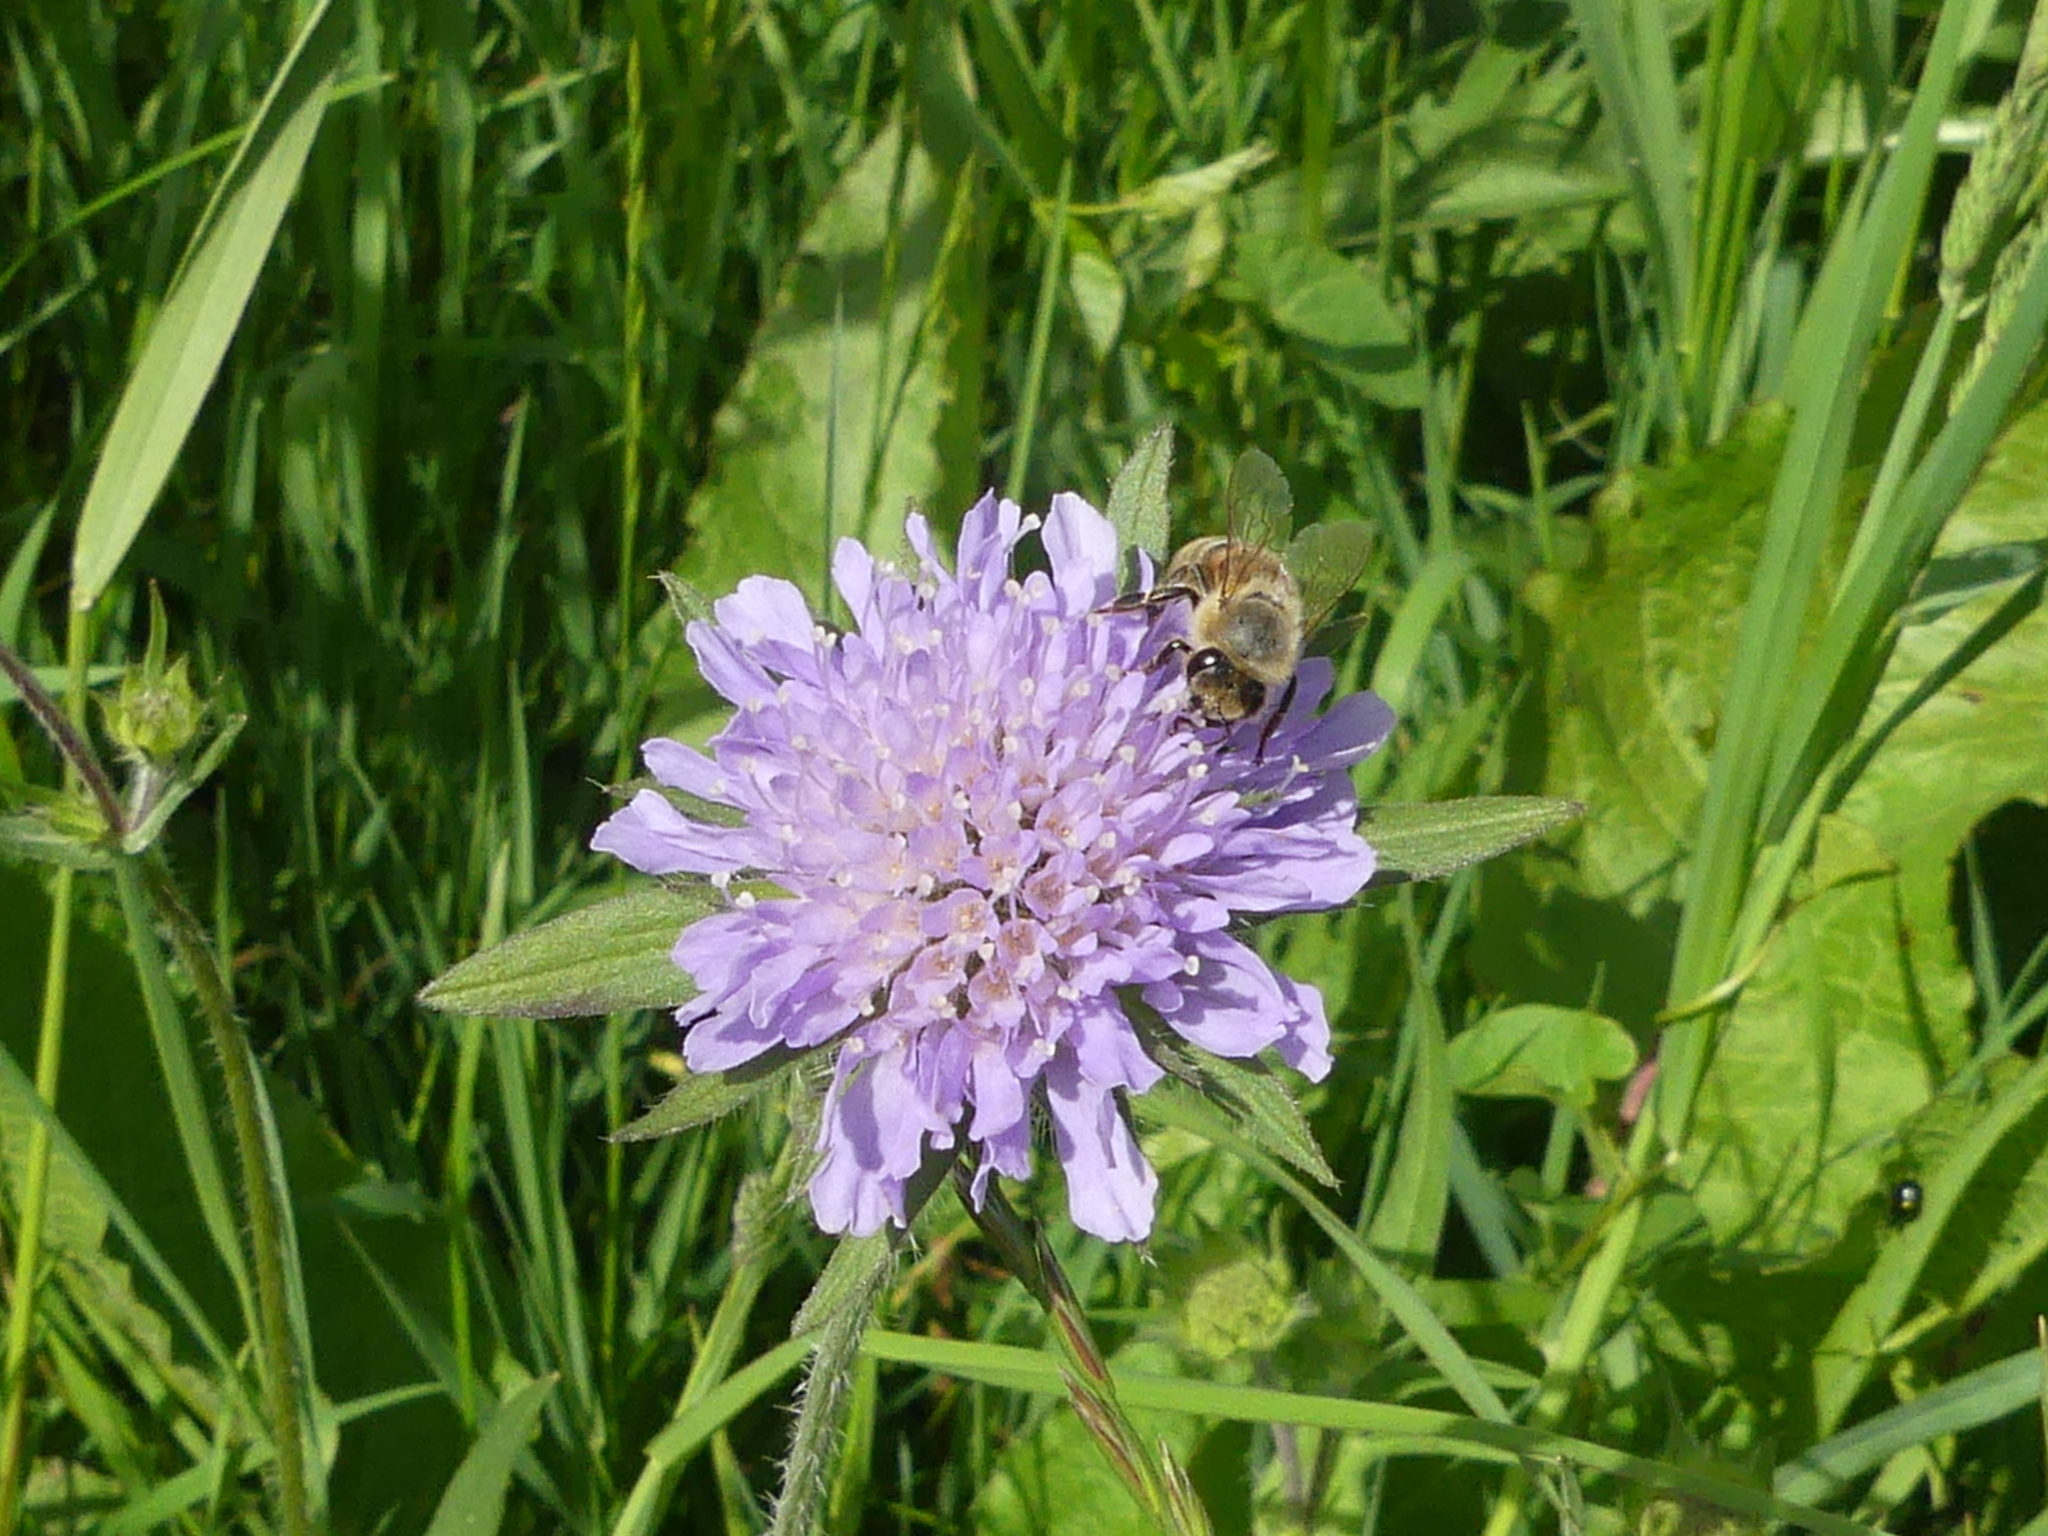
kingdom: Animalia
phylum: Arthropoda
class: Insecta
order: Hymenoptera
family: Apidae
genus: Apis
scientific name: Apis mellifera
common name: Honey bee
